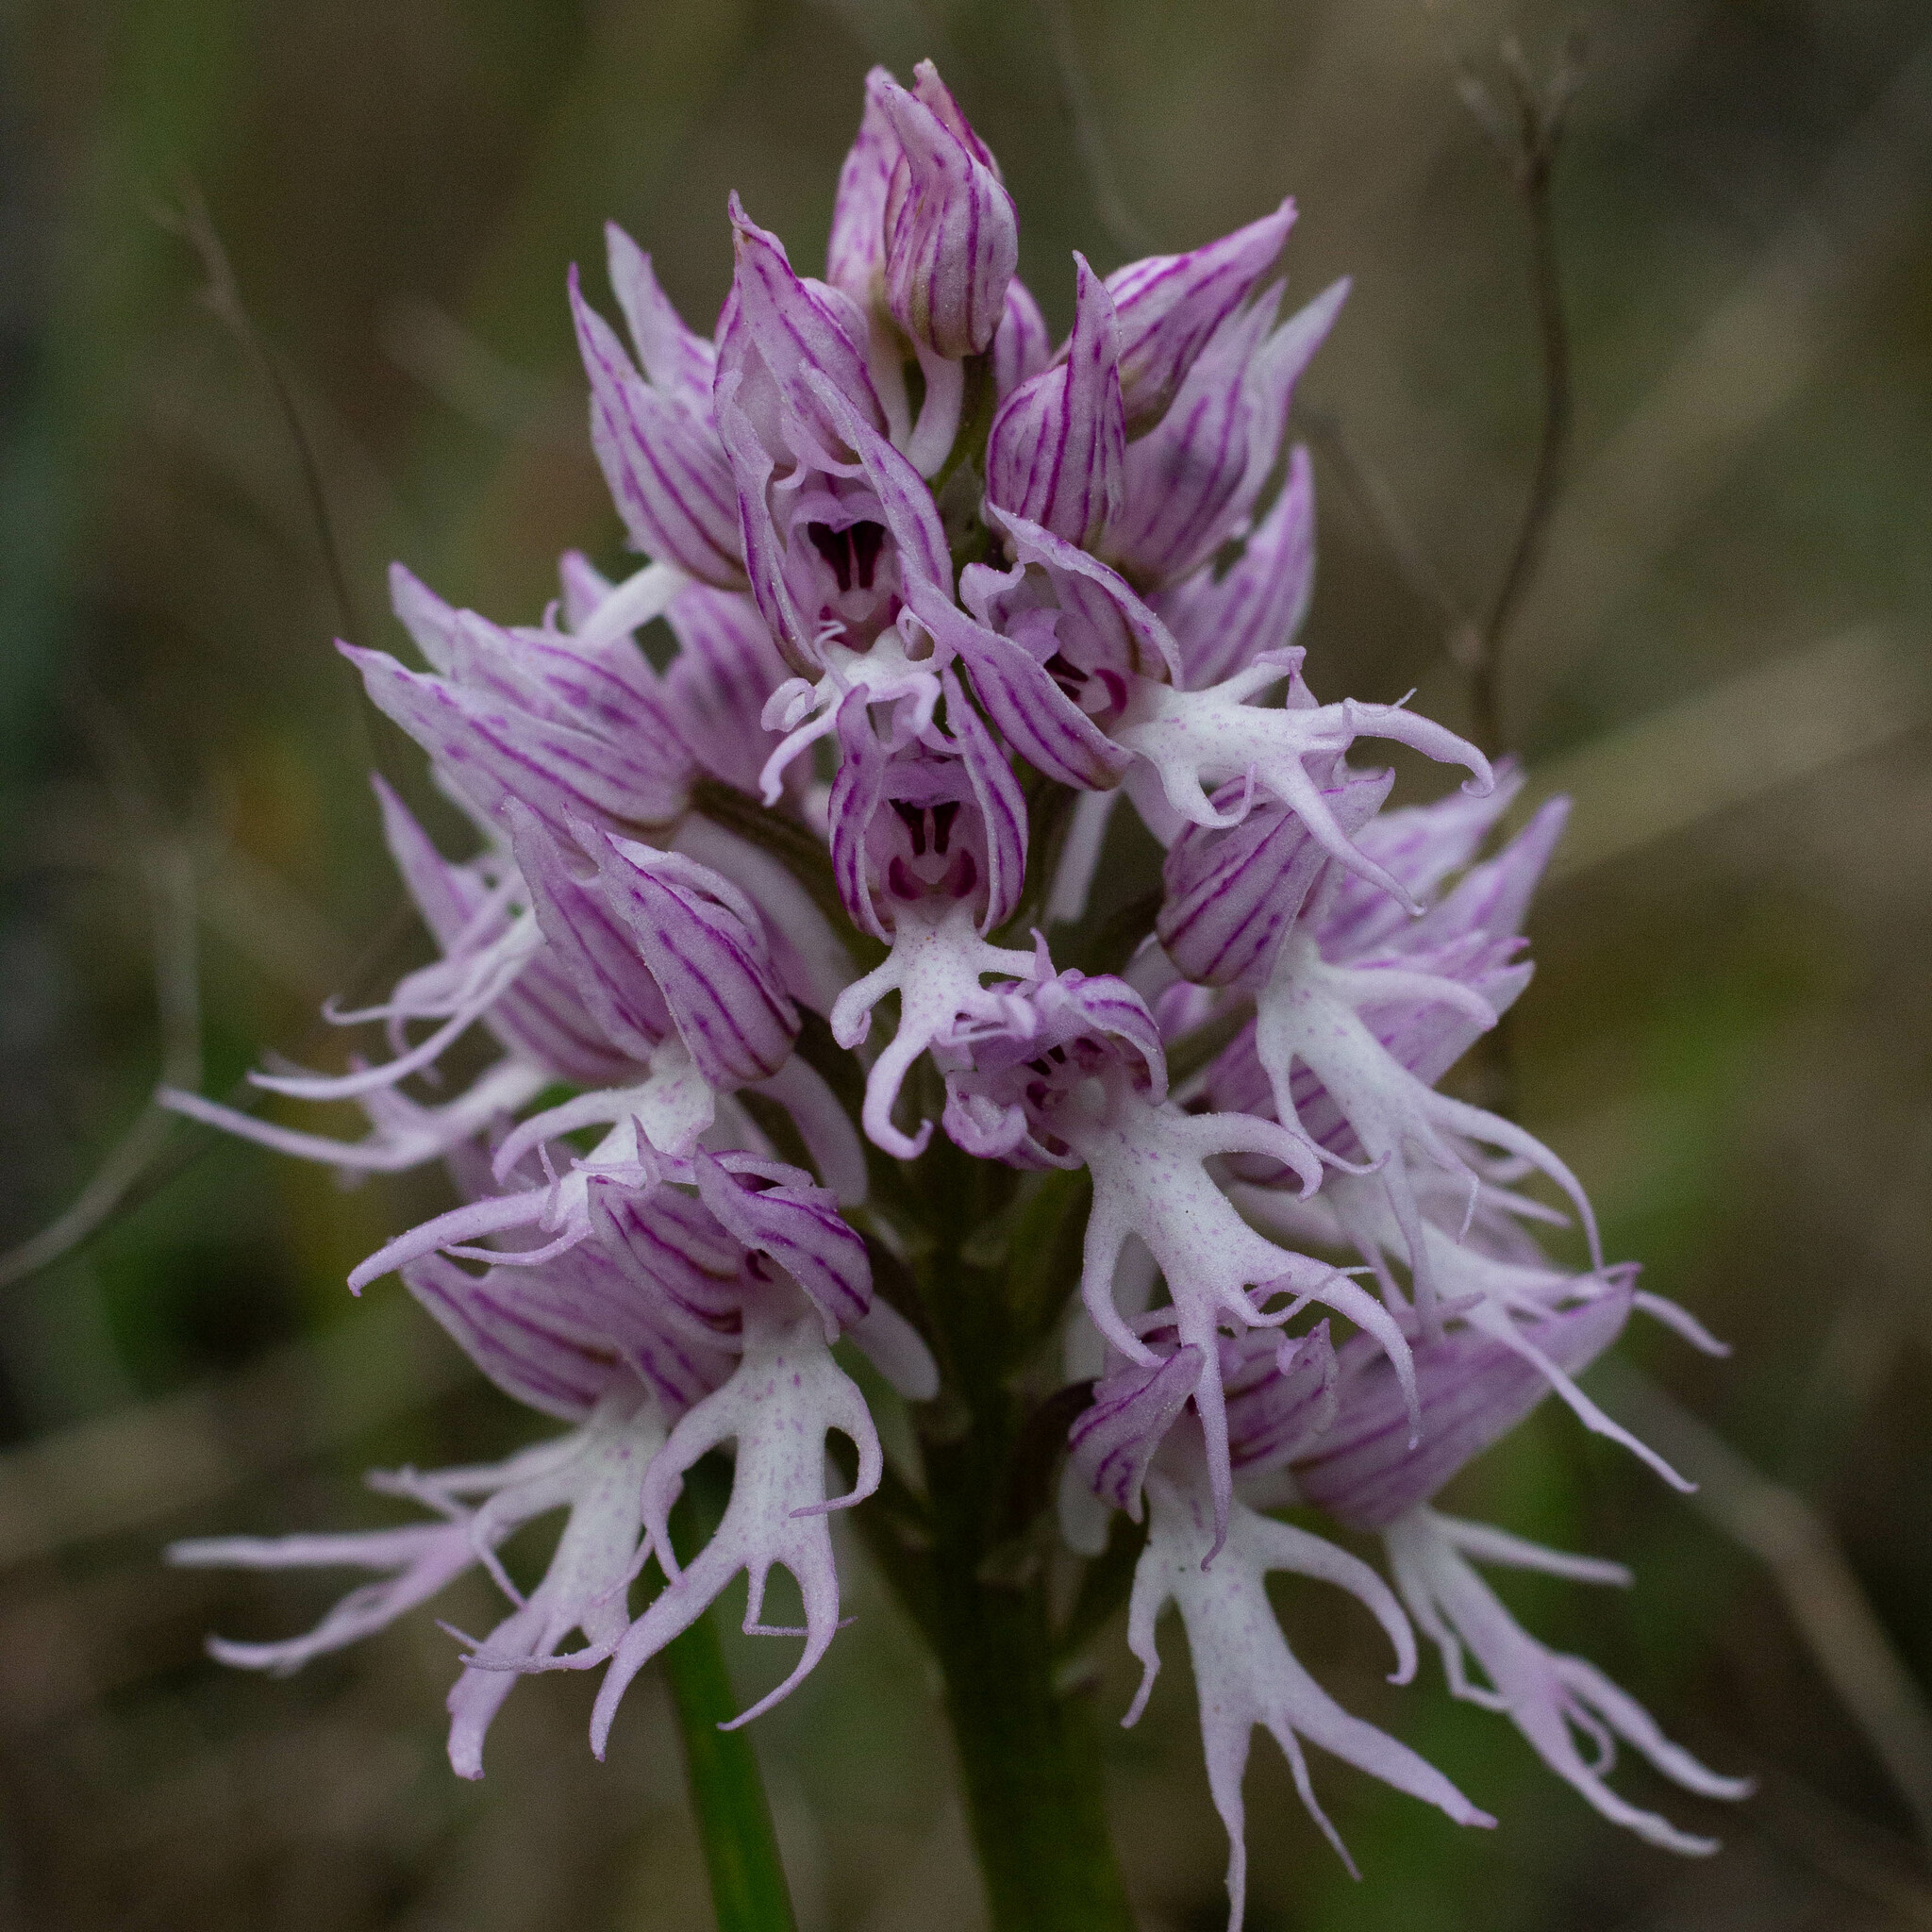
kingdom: Plantae
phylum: Tracheophyta
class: Liliopsida
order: Asparagales
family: Orchidaceae
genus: Orchis
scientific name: Orchis italica
